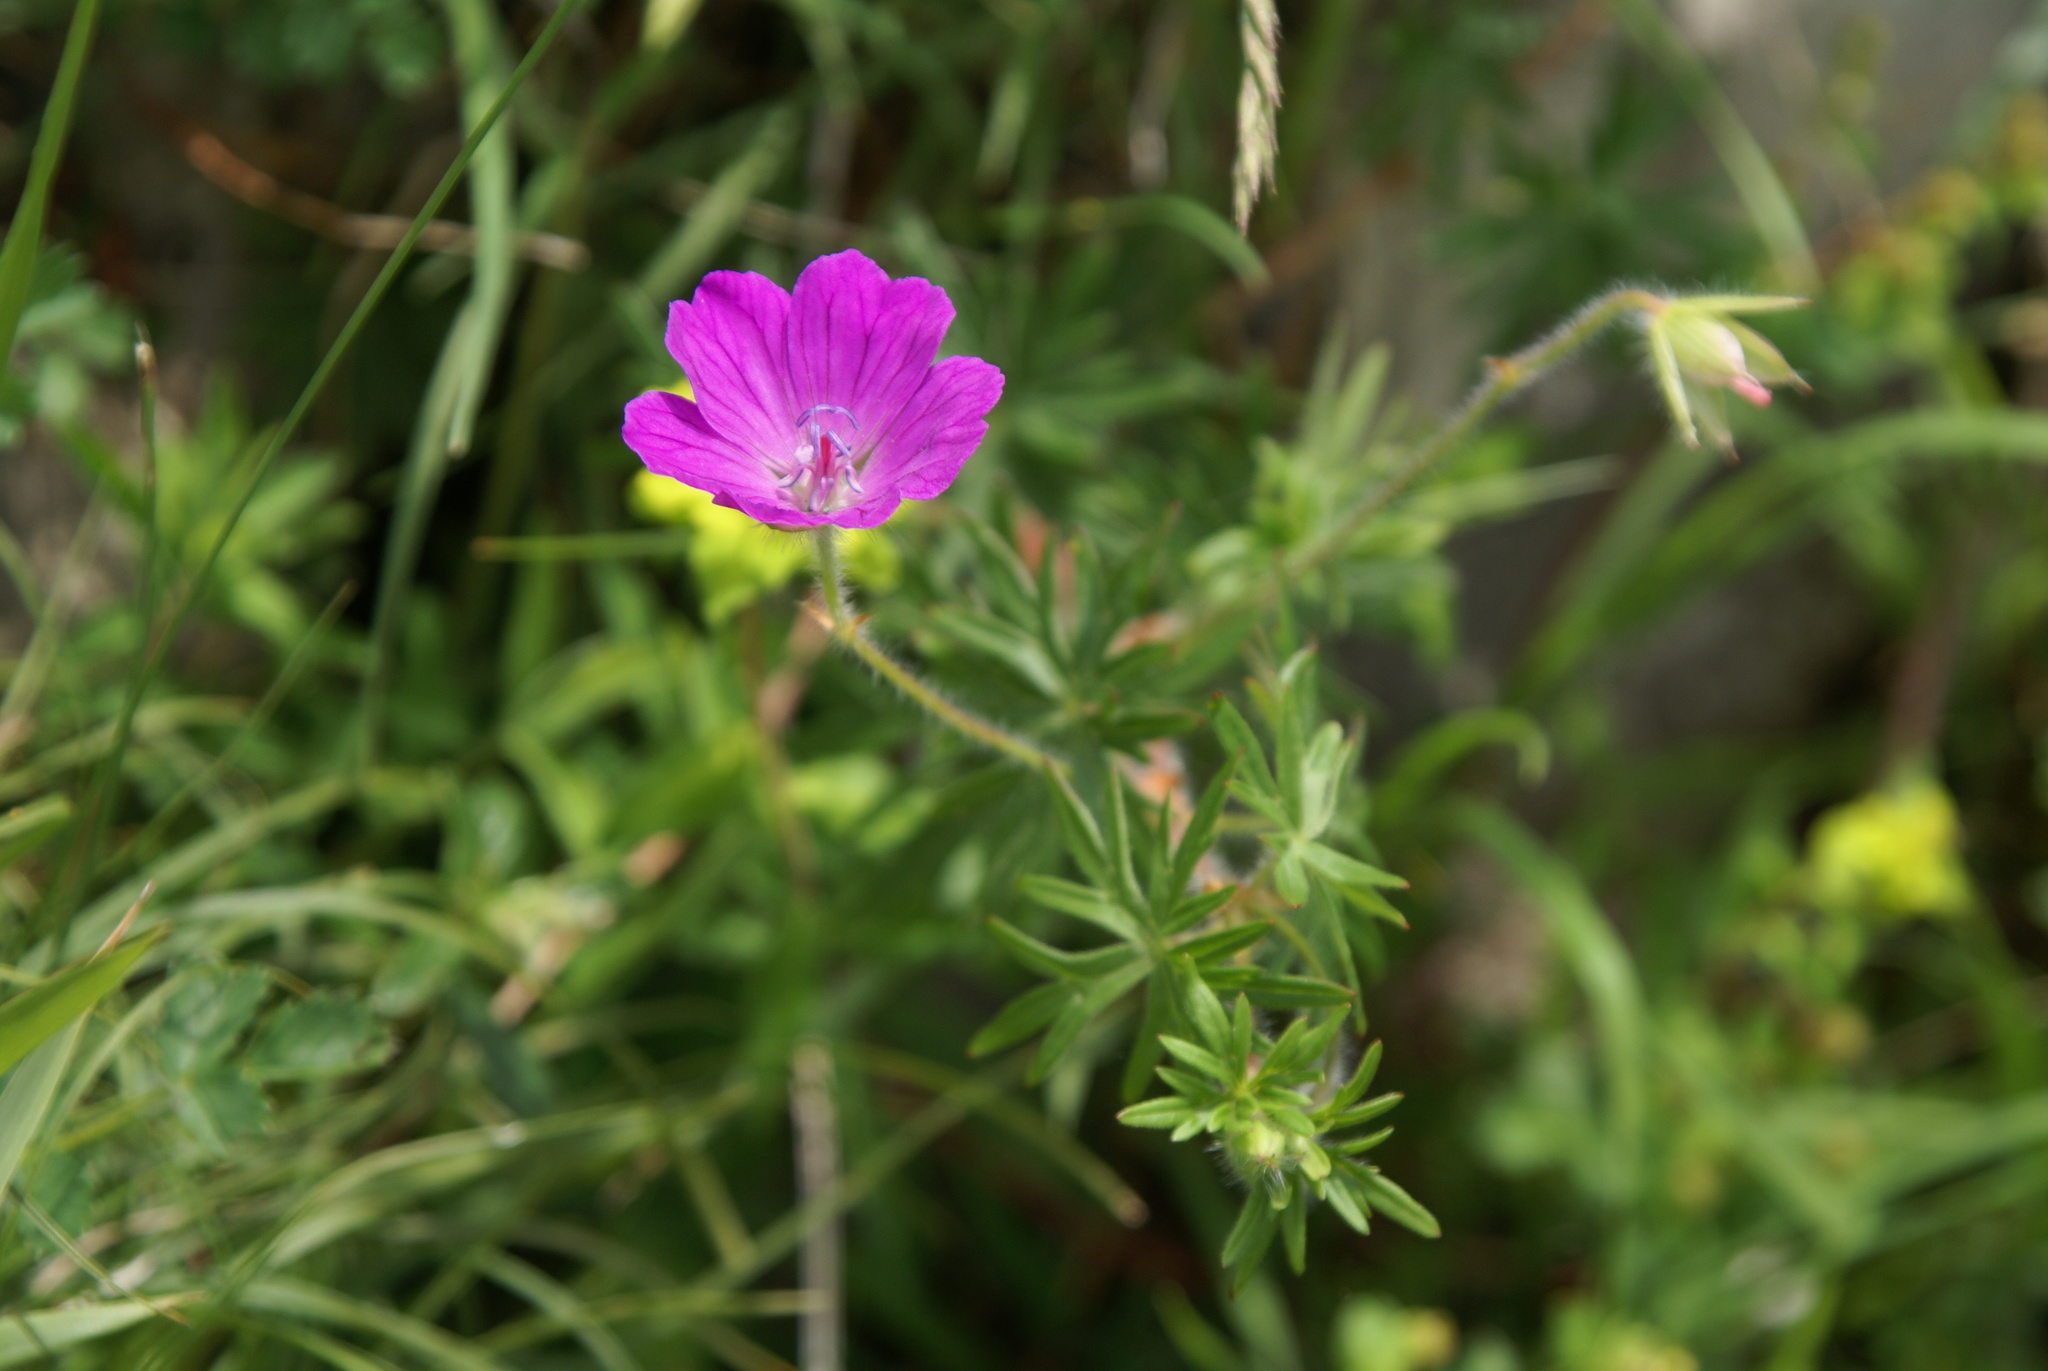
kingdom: Plantae
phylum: Tracheophyta
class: Magnoliopsida
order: Geraniales
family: Geraniaceae
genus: Geranium
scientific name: Geranium sanguineum
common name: Bloody crane's-bill
